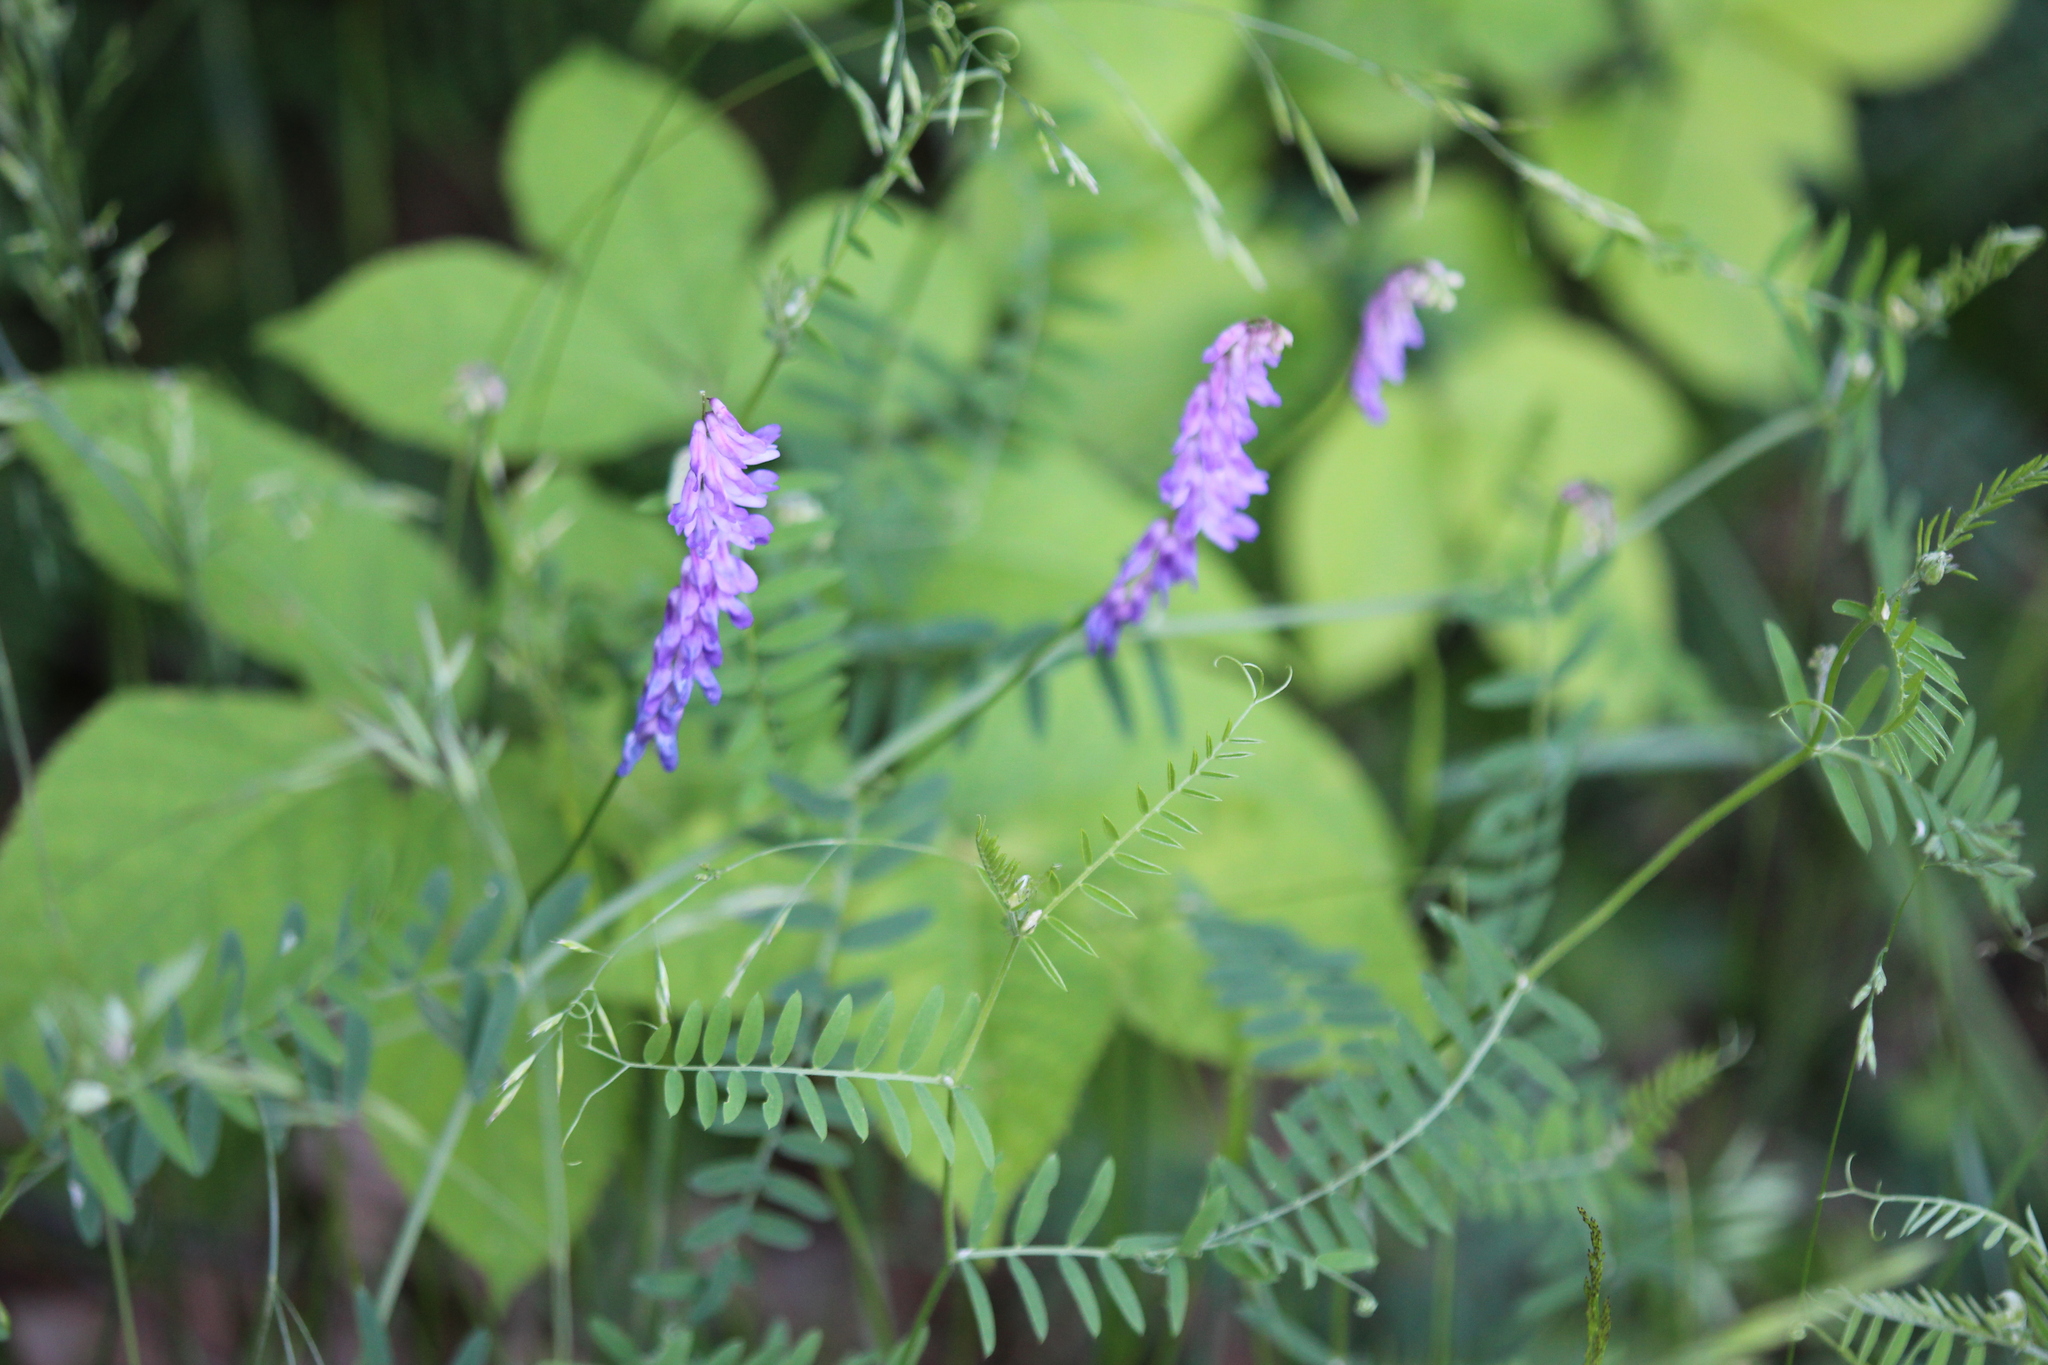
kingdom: Plantae
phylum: Tracheophyta
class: Magnoliopsida
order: Fabales
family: Fabaceae
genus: Vicia
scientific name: Vicia cracca
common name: Bird vetch
